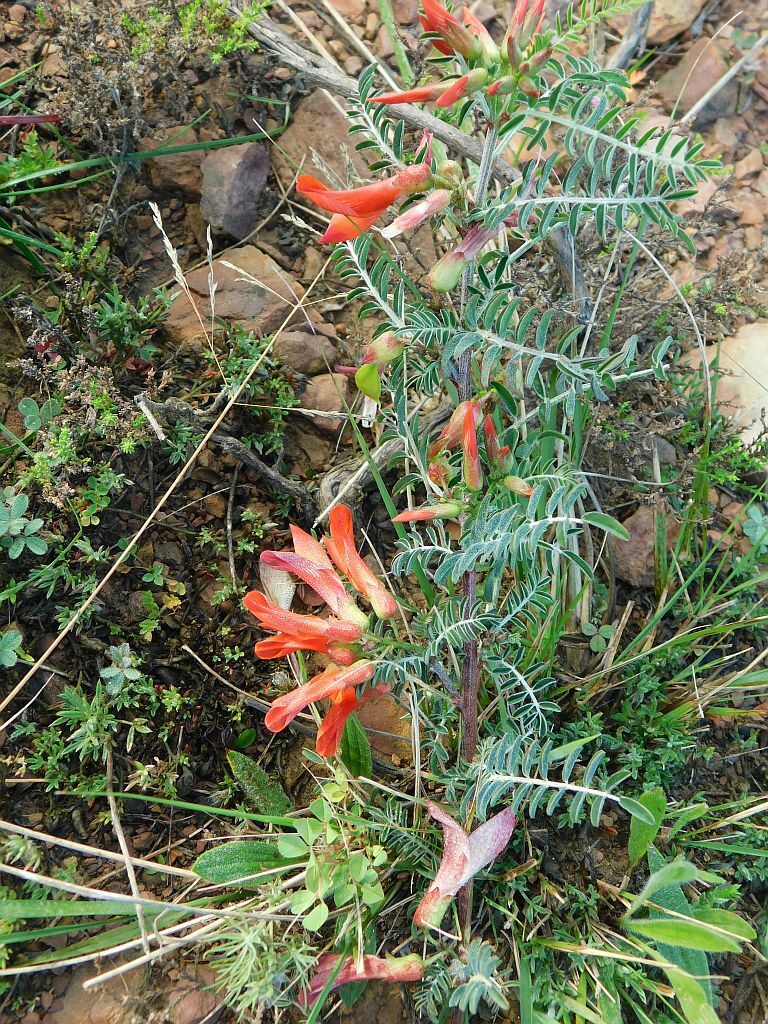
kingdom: Plantae
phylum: Tracheophyta
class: Magnoliopsida
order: Fabales
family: Fabaceae
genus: Lessertia
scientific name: Lessertia frutescens
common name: Balloon-pea
